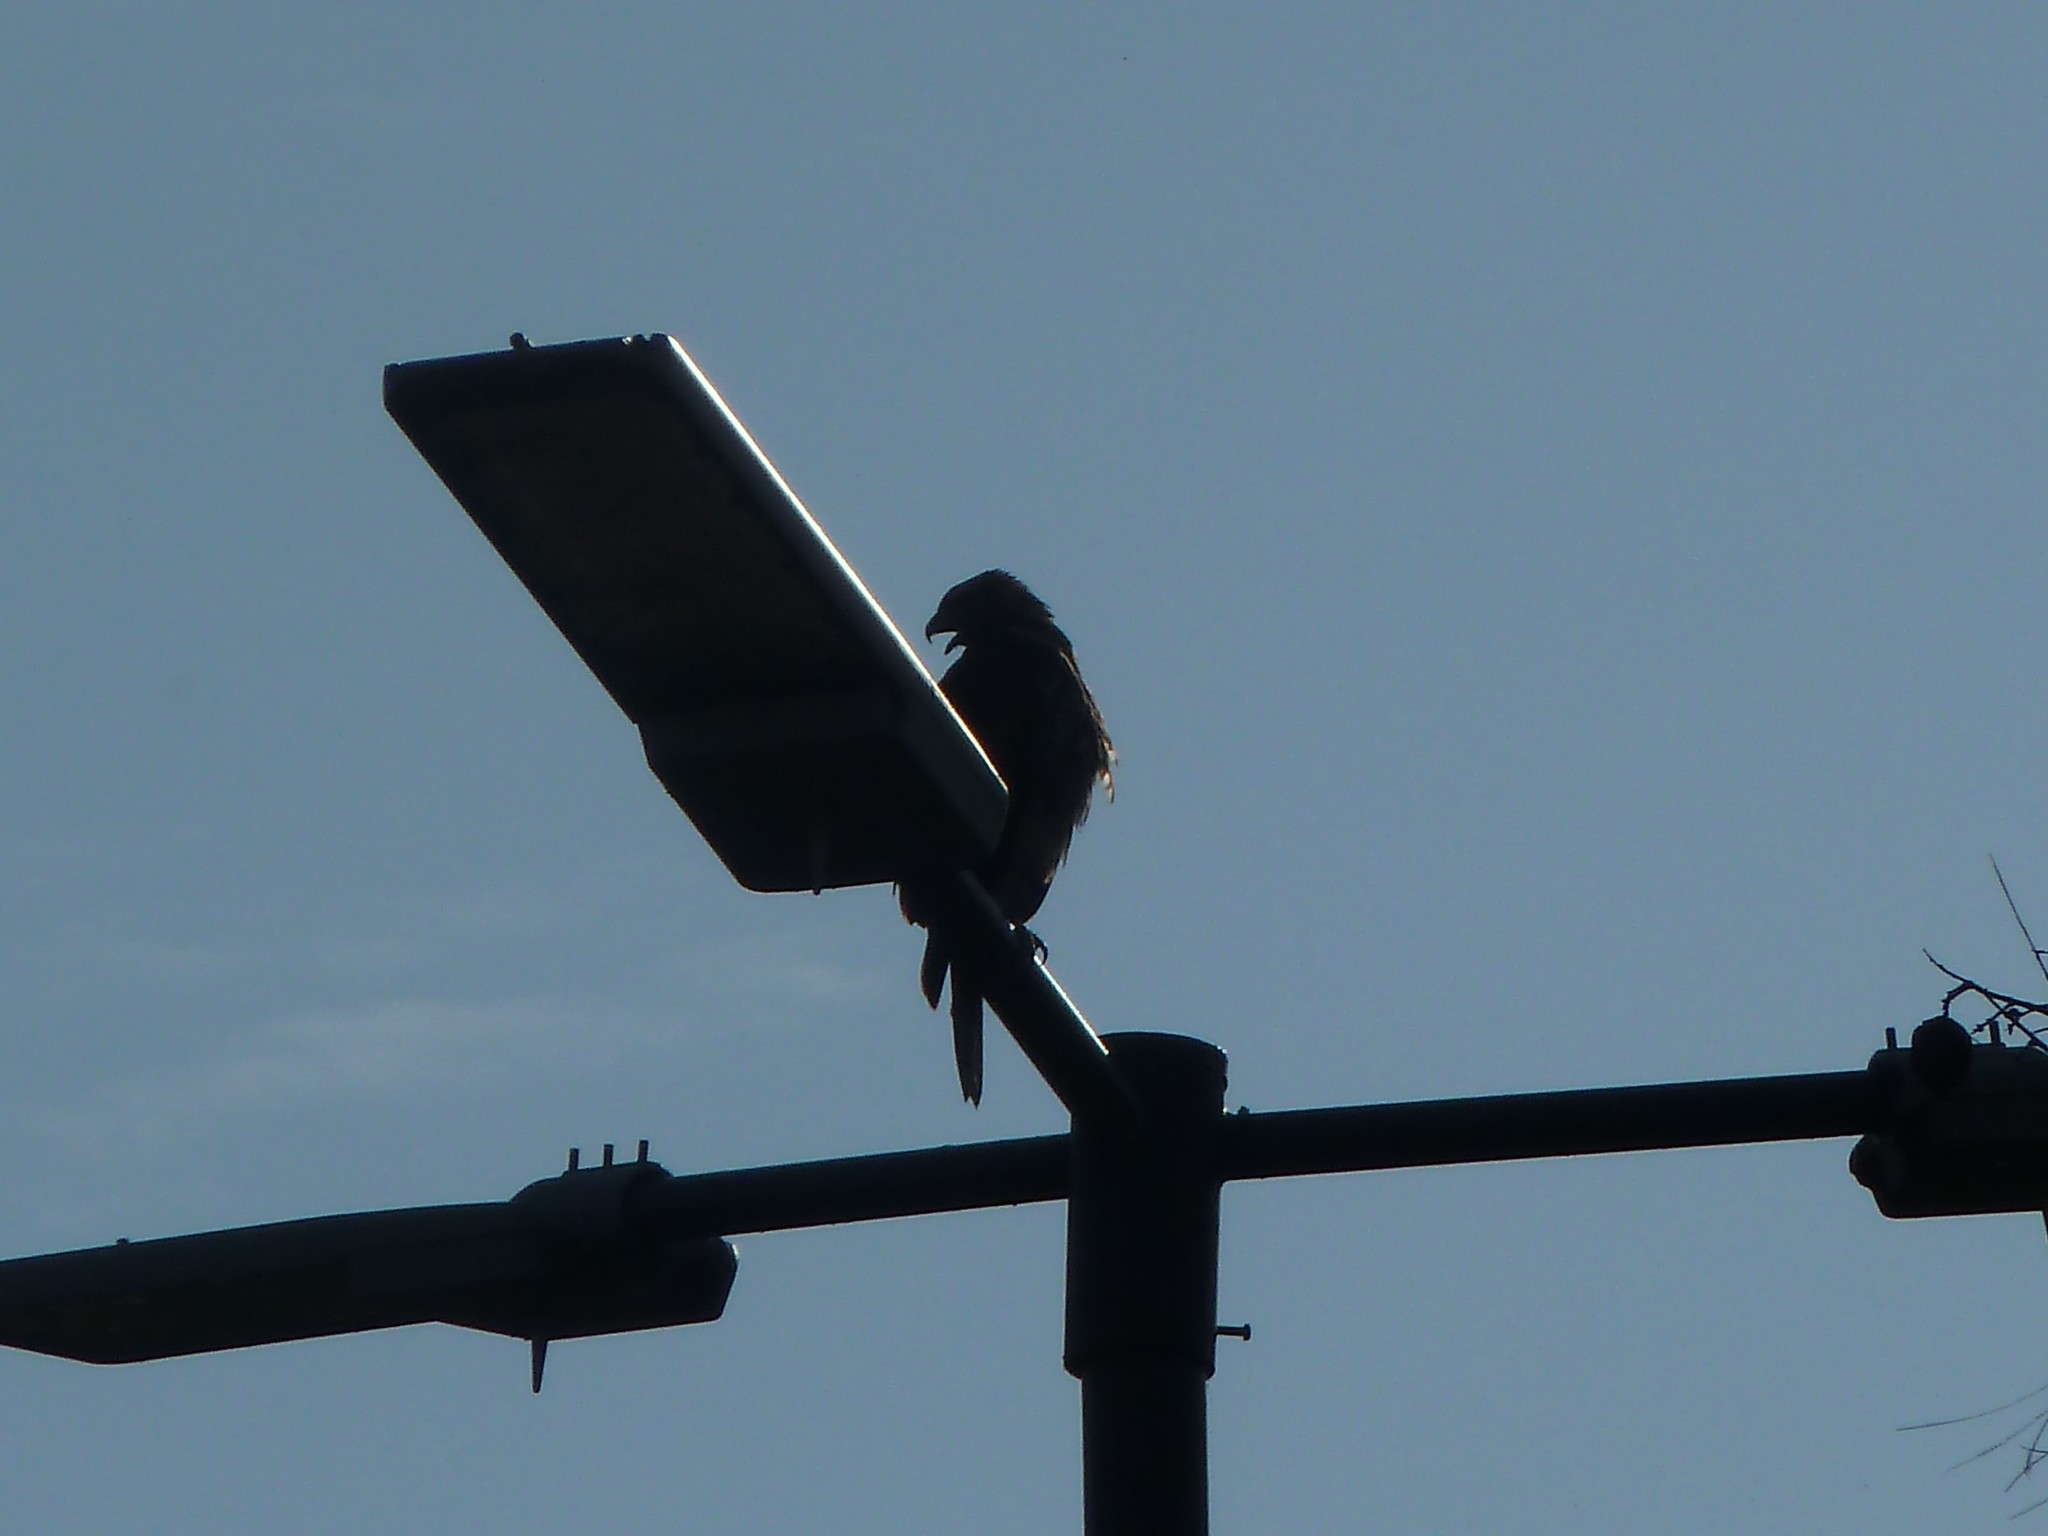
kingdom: Animalia
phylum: Chordata
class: Aves
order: Accipitriformes
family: Accipitridae
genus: Parabuteo
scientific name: Parabuteo unicinctus
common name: Harris's hawk
